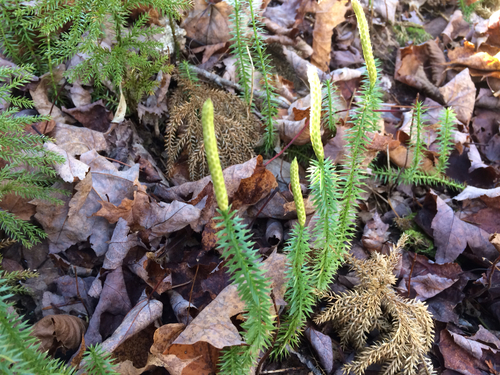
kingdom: Plantae
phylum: Tracheophyta
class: Lycopodiopsida
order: Lycopodiales
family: Lycopodiaceae
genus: Spinulum
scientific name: Spinulum annotinum
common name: Interrupted club-moss
